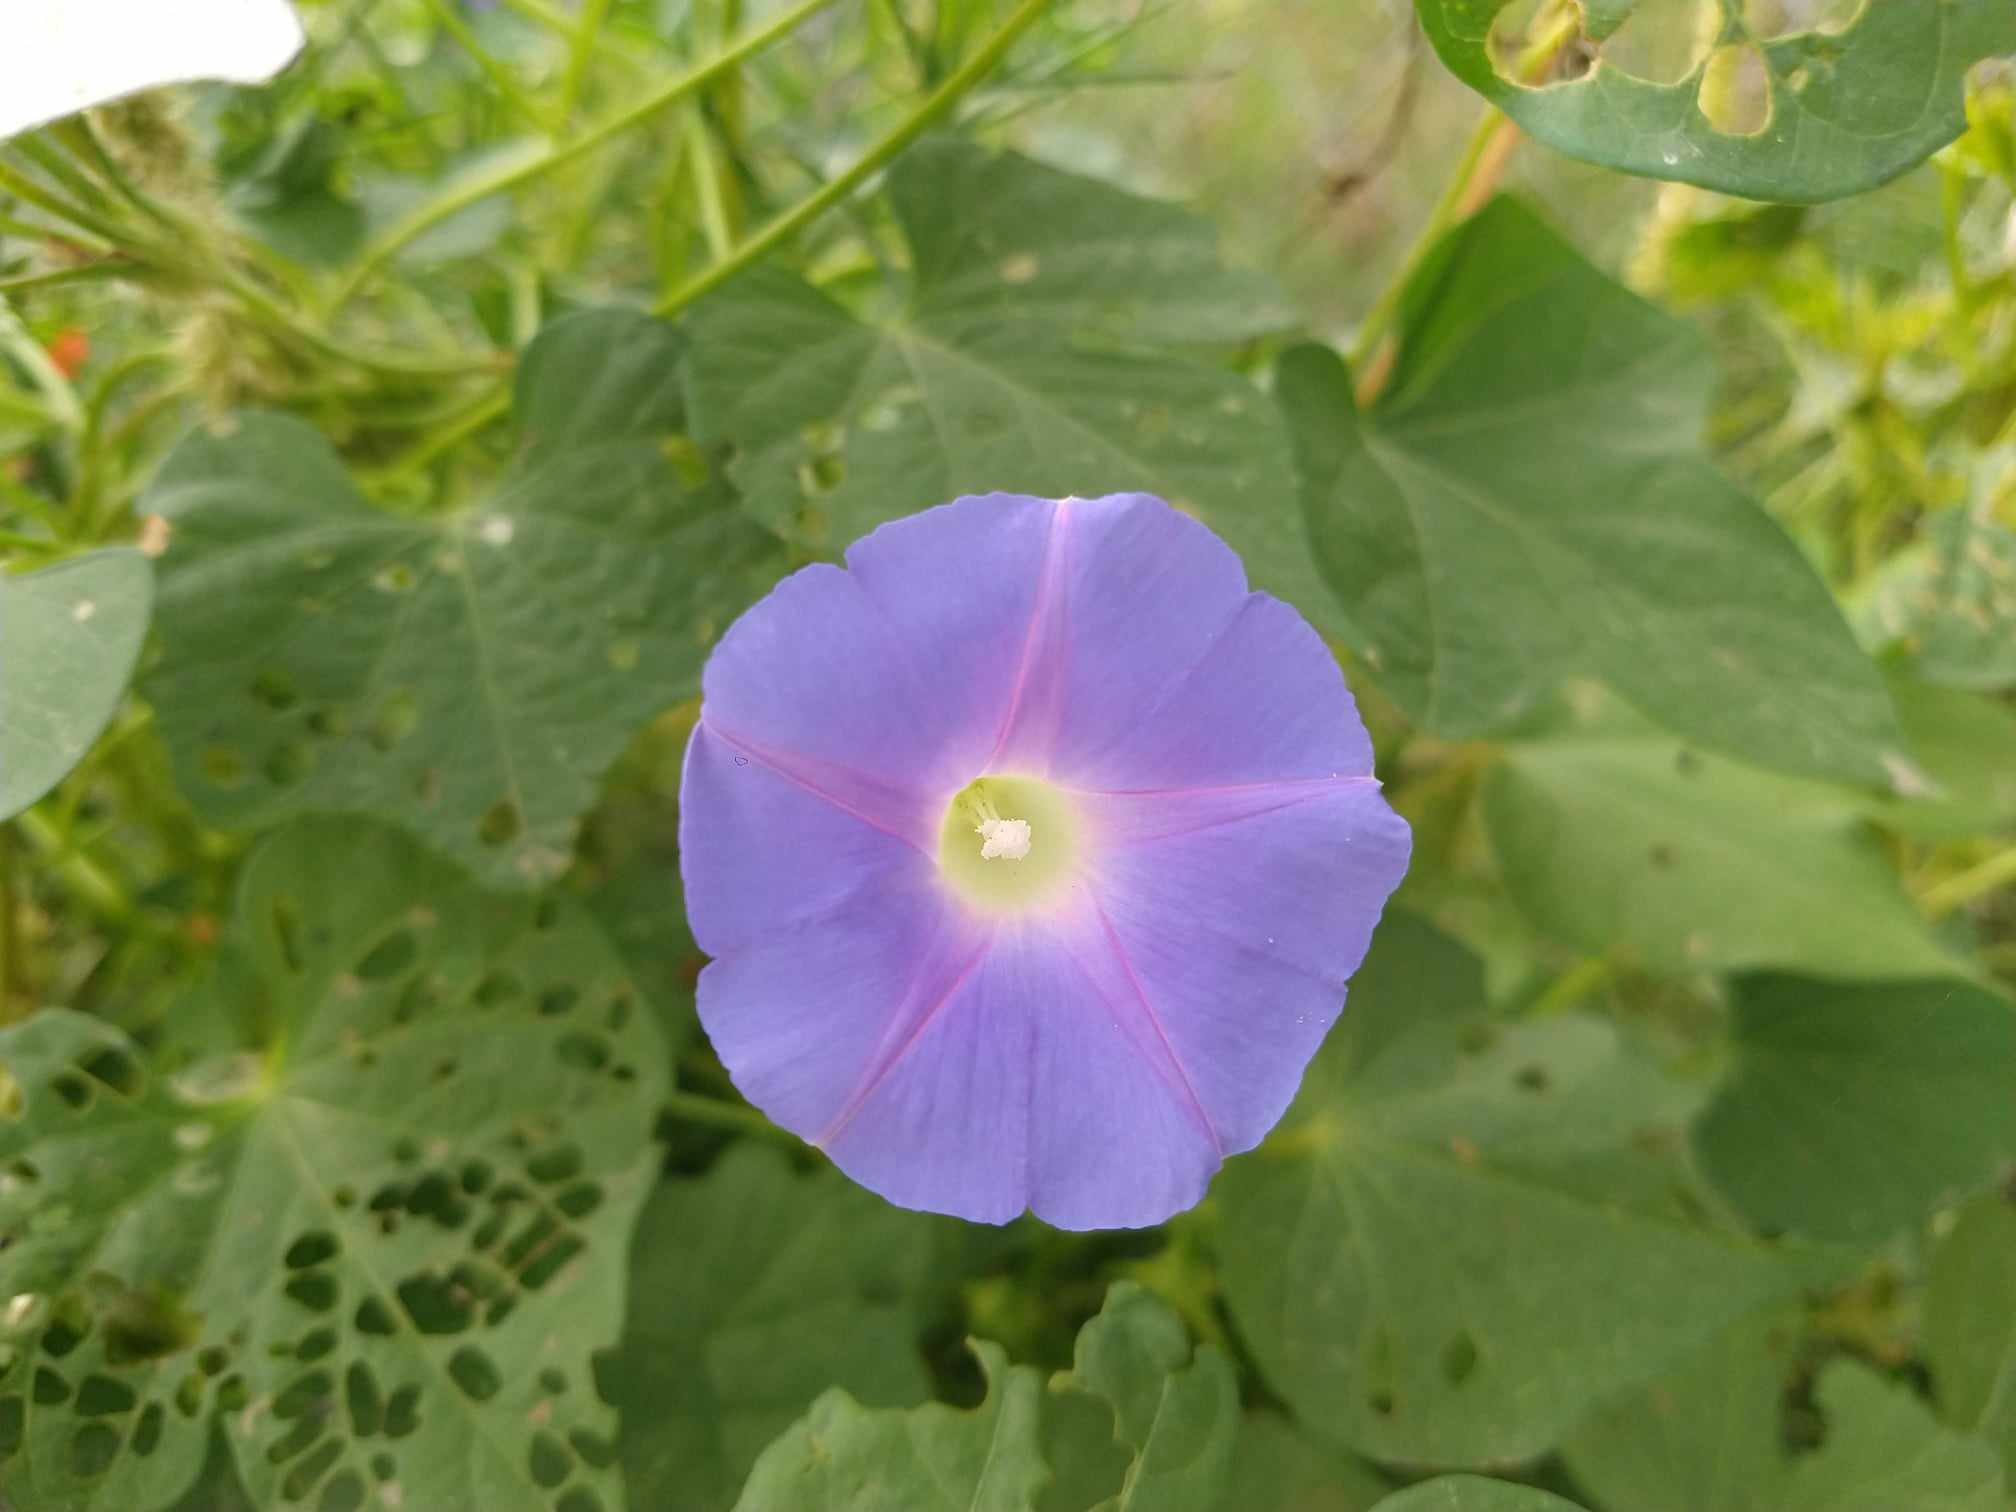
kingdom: Plantae
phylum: Tracheophyta
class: Magnoliopsida
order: Solanales
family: Convolvulaceae
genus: Ipomoea
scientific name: Ipomoea hederacea
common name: Ivy-leaved morning-glory
